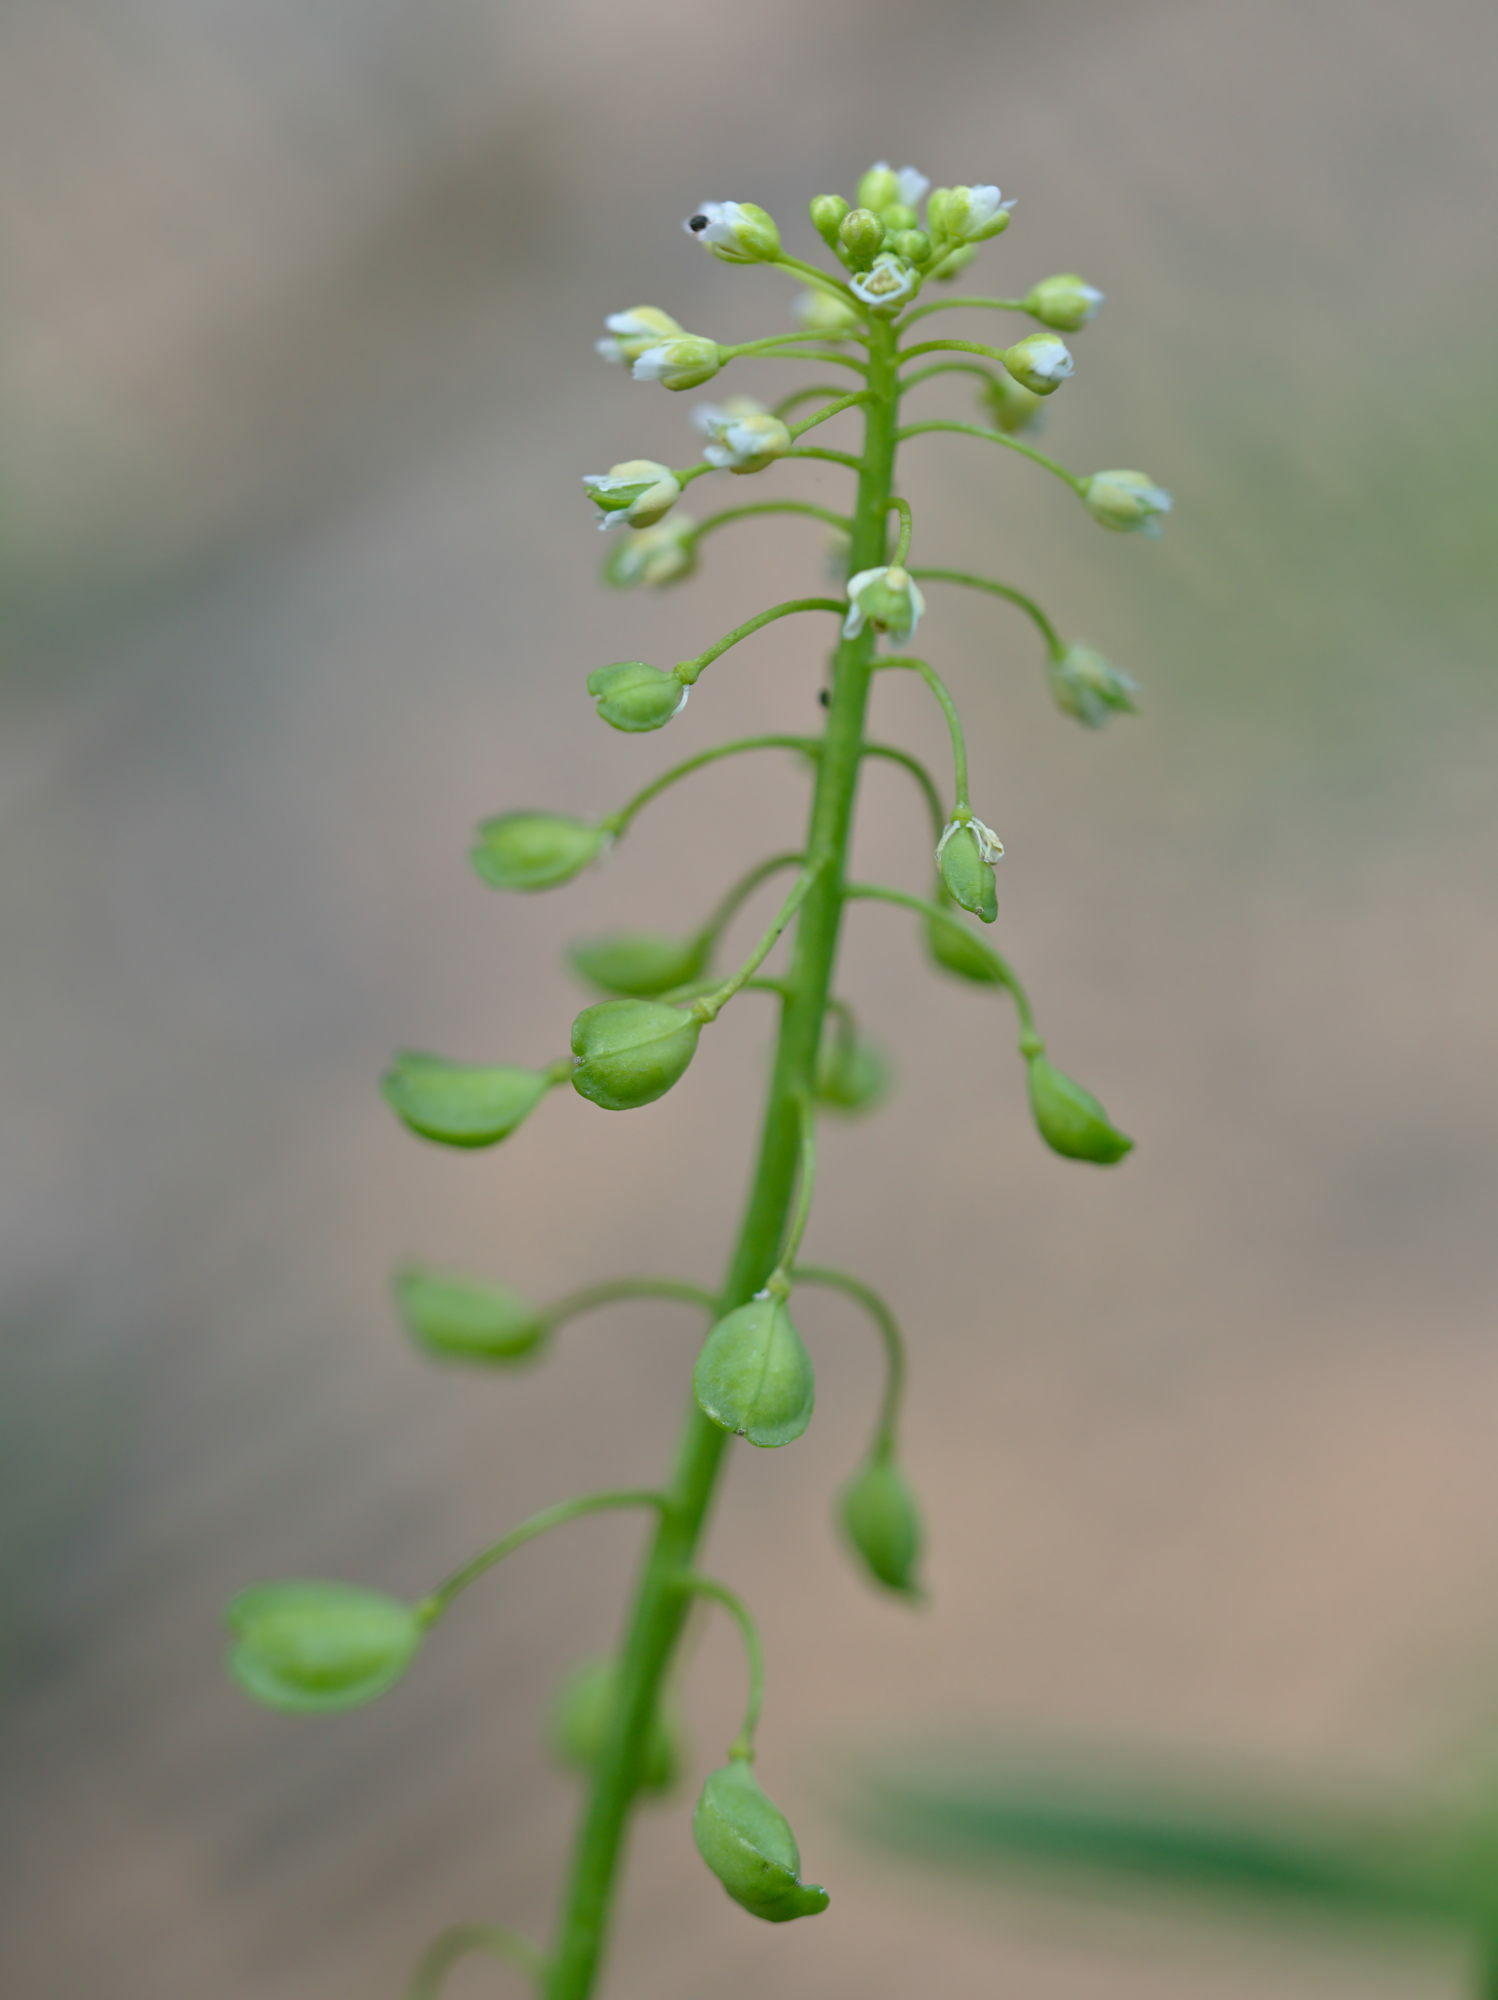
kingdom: Plantae
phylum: Tracheophyta
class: Magnoliopsida
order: Brassicales
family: Brassicaceae
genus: Mummenhoffia
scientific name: Mummenhoffia alliacea
